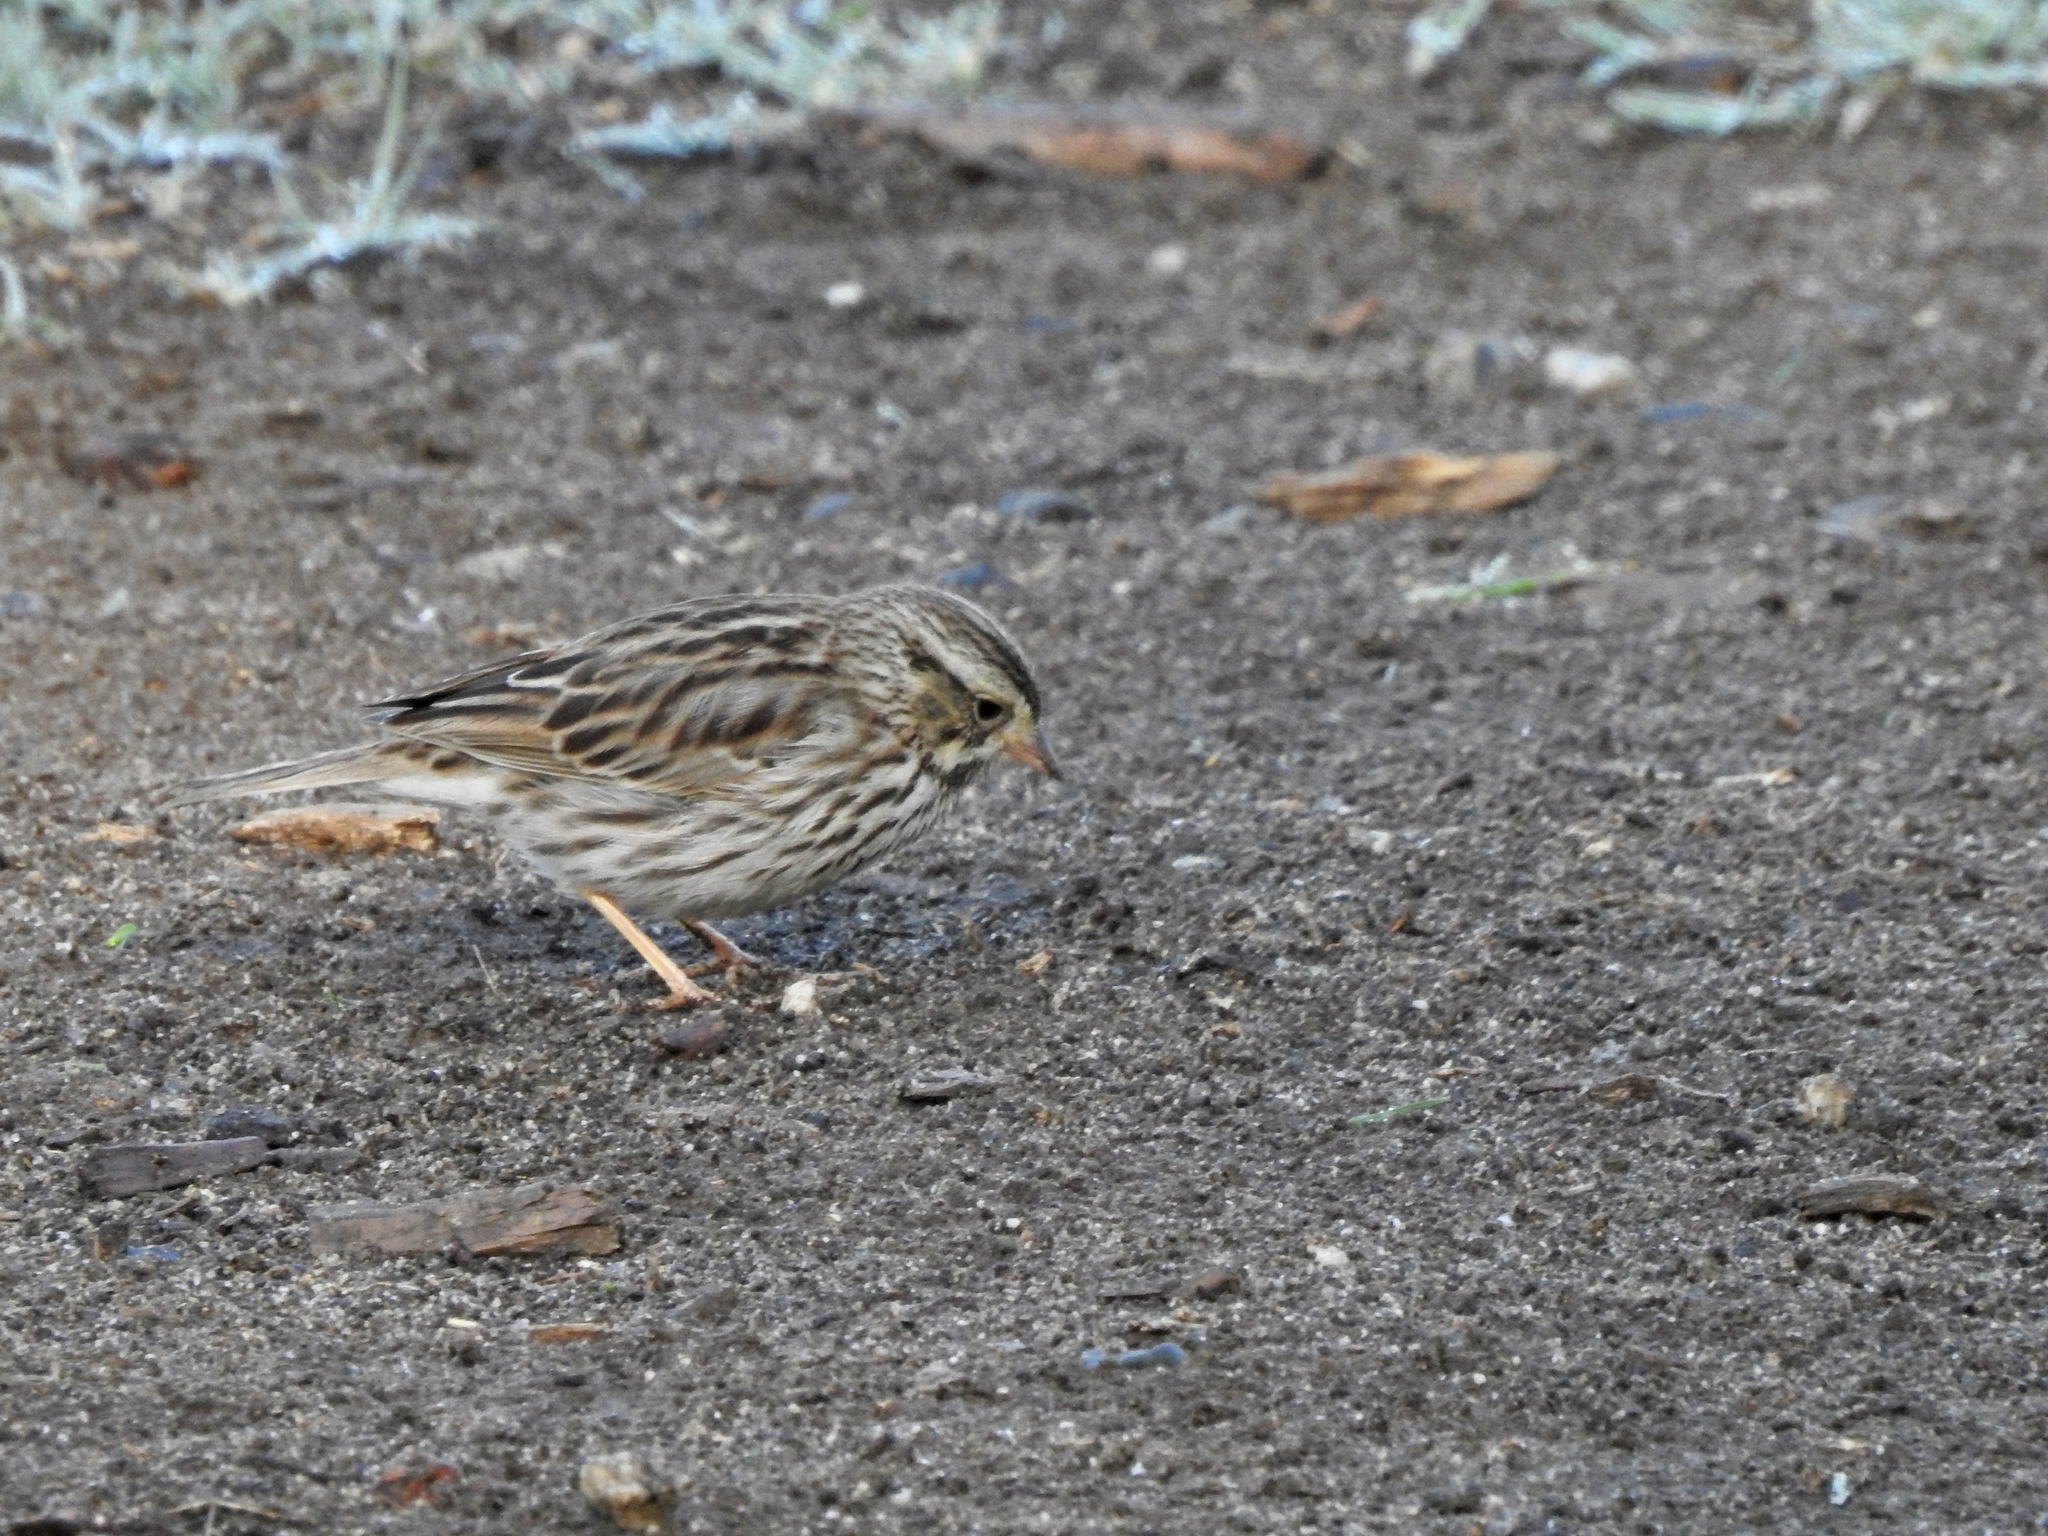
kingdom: Animalia
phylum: Chordata
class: Aves
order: Passeriformes
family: Passerellidae
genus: Passerculus
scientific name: Passerculus sandwichensis
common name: Savannah sparrow
